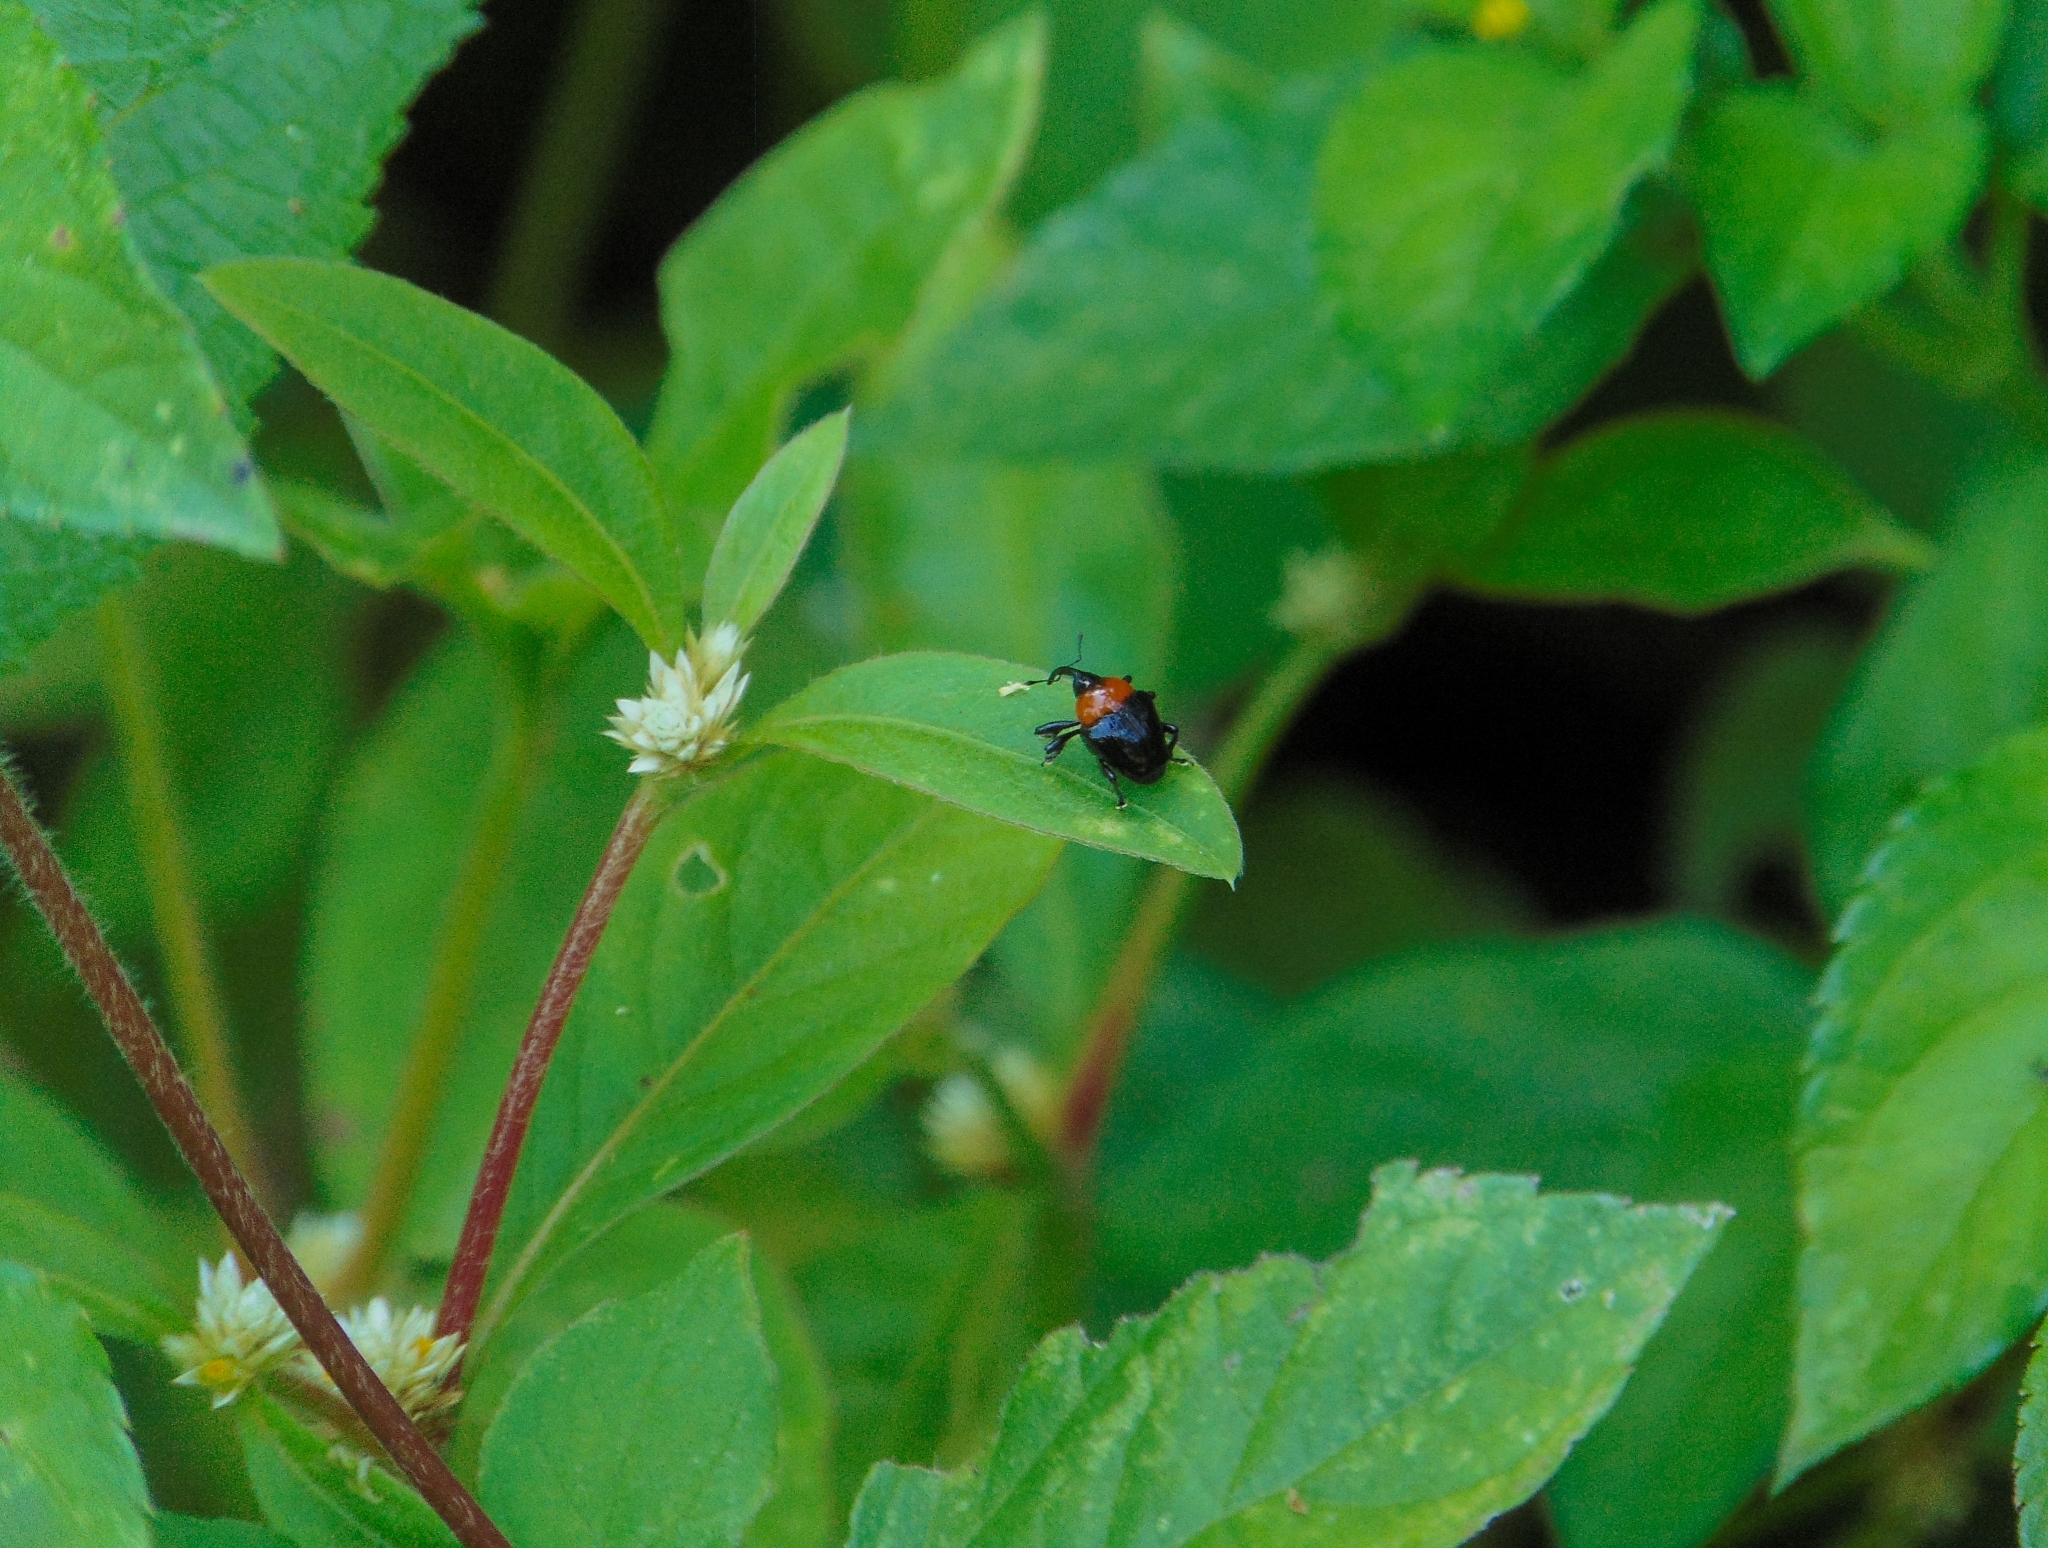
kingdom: Animalia
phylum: Arthropoda
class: Insecta
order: Coleoptera
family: Curculionidae
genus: Xystus
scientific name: Xystus sanguinicollis
